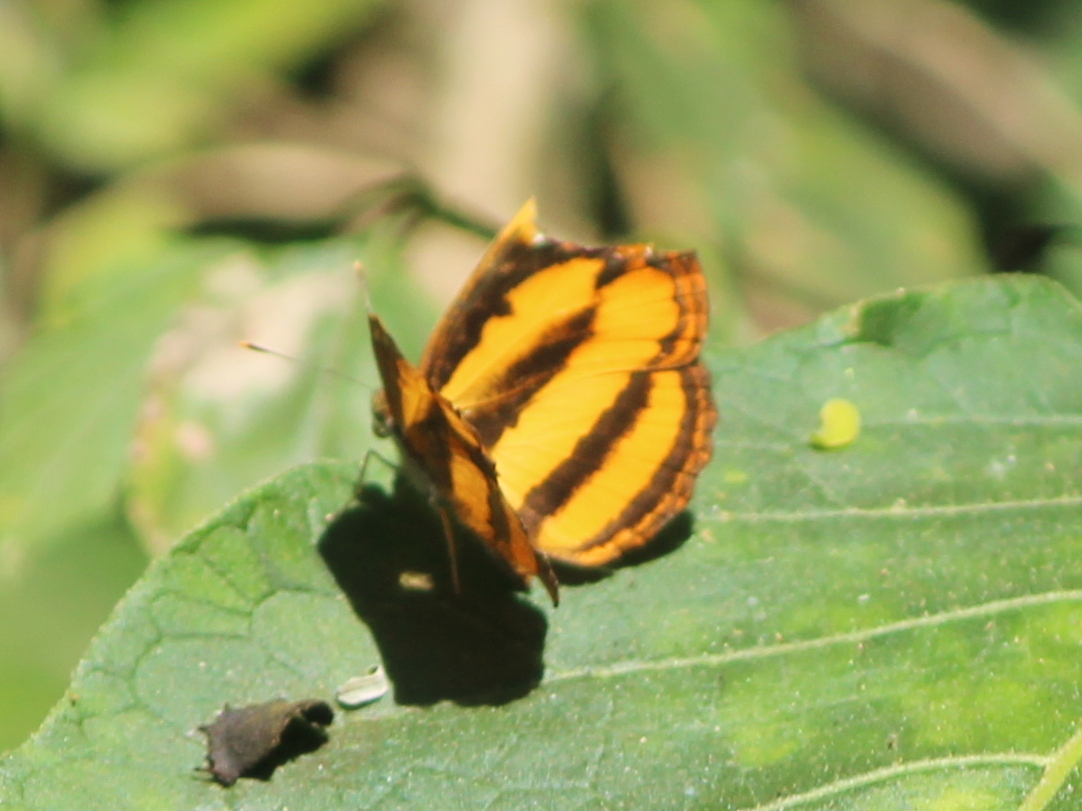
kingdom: Animalia
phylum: Arthropoda
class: Insecta
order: Lepidoptera
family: Nymphalidae
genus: Pantoporia
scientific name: Pantoporia hordonia
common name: Common lascar
